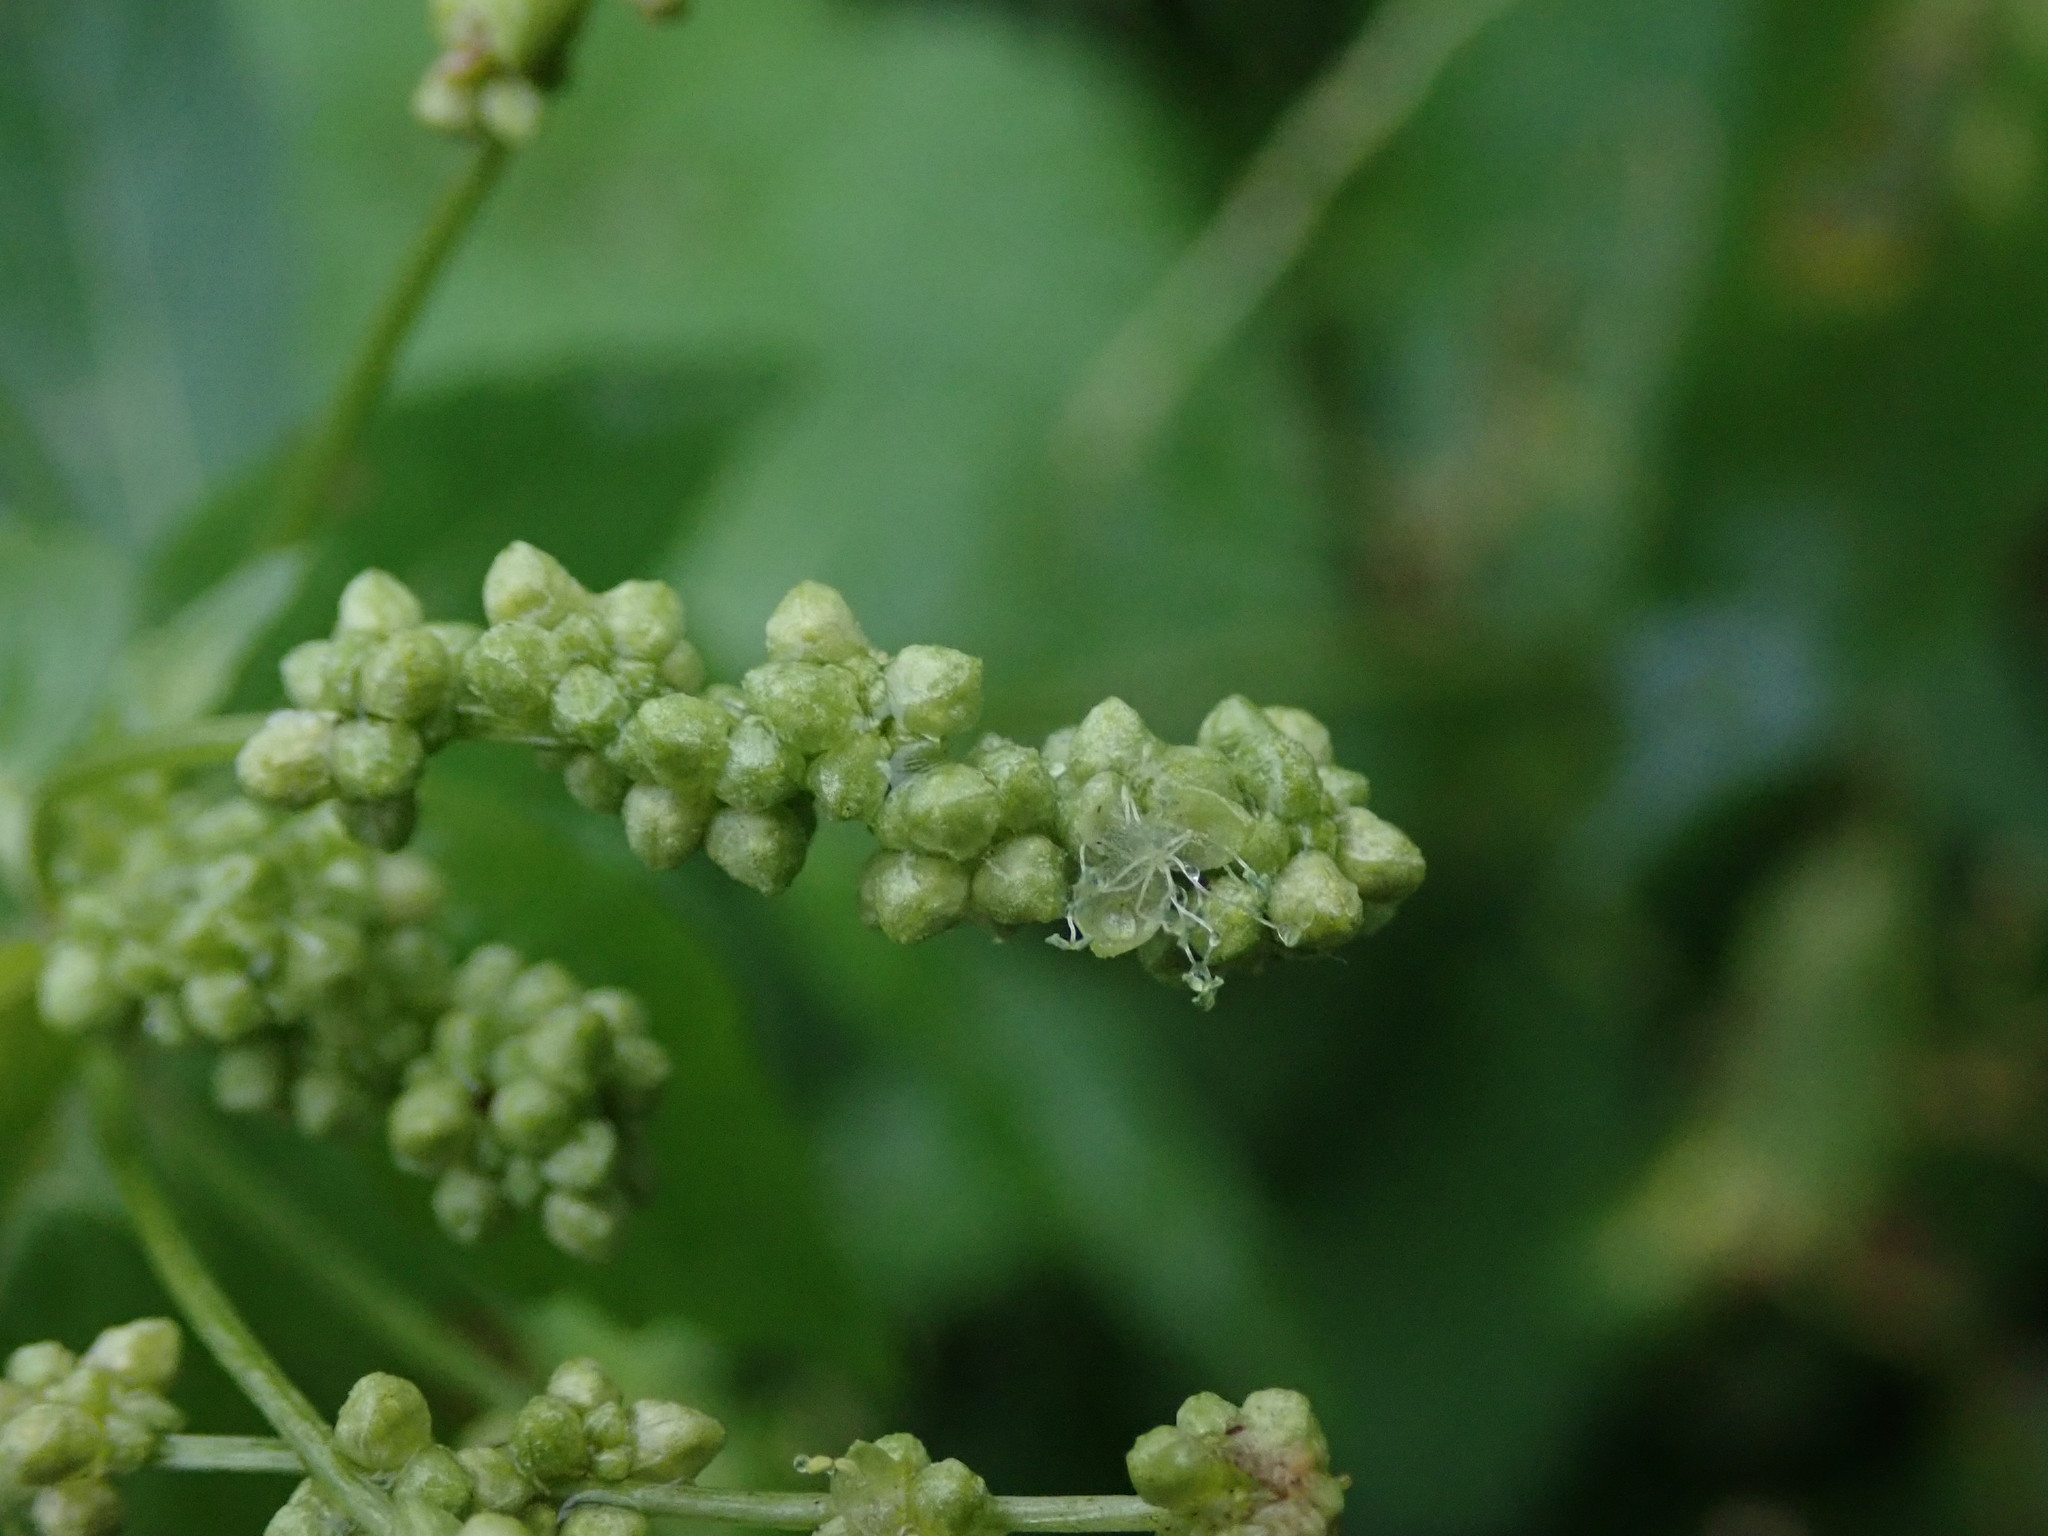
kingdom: Plantae
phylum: Tracheophyta
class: Magnoliopsida
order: Malpighiales
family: Euphorbiaceae
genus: Mercurialis
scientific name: Mercurialis annua
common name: Annual mercury
